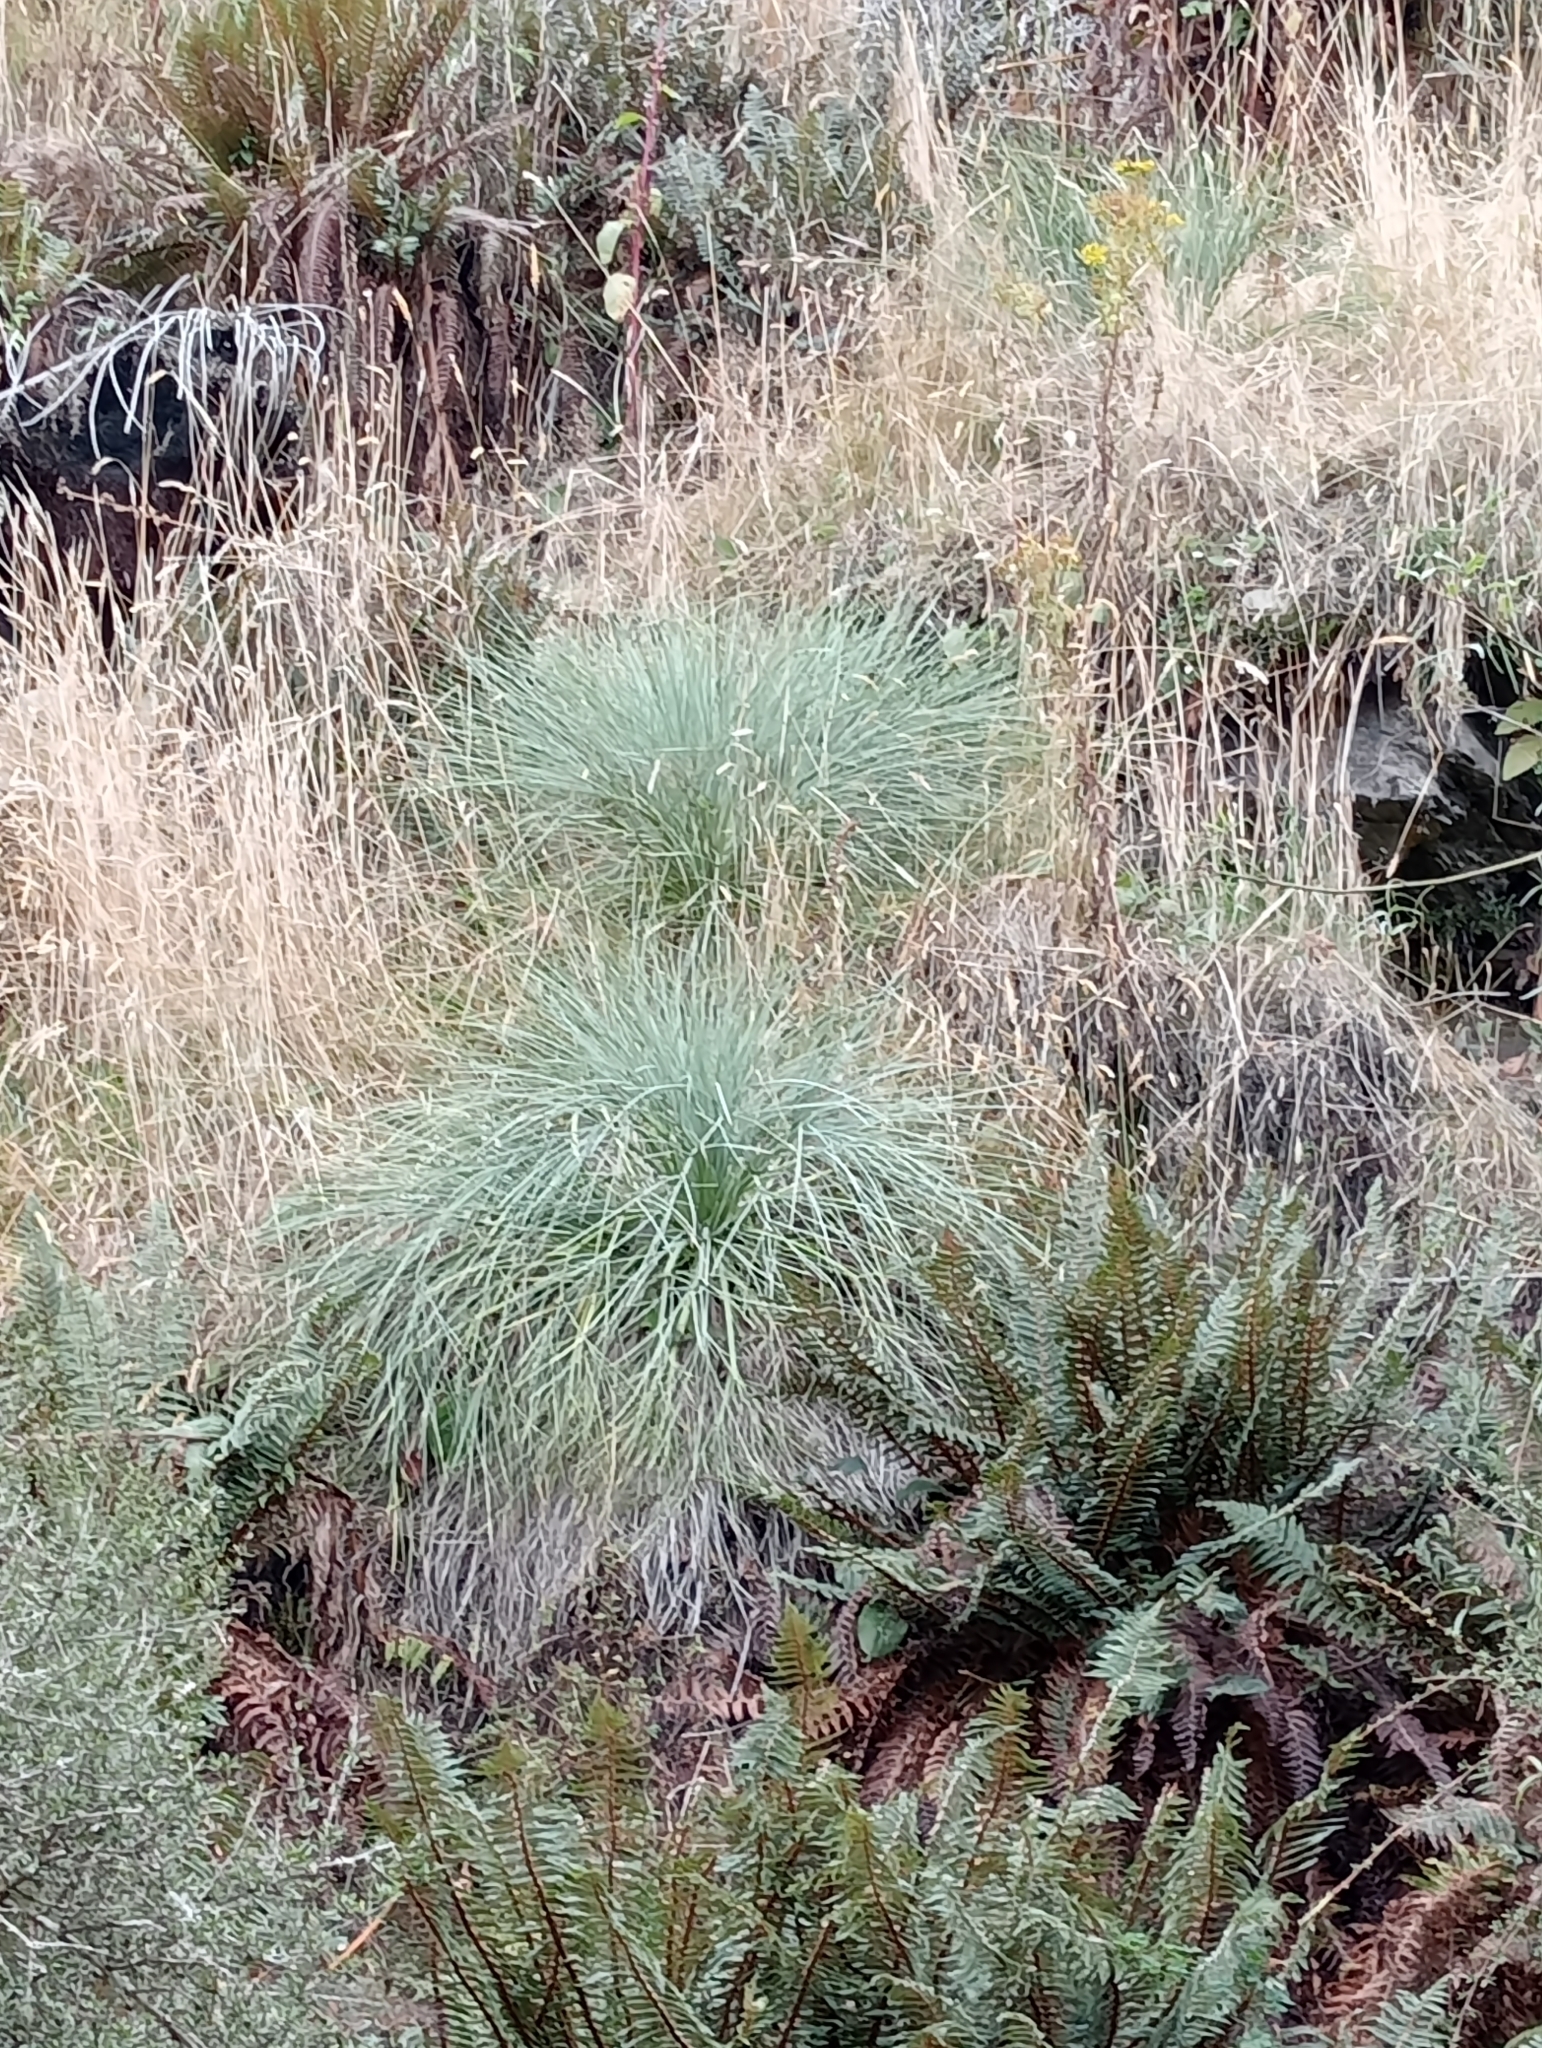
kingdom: Plantae
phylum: Tracheophyta
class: Magnoliopsida
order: Apiales
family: Apiaceae
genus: Aciphylla
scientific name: Aciphylla glaucescens
